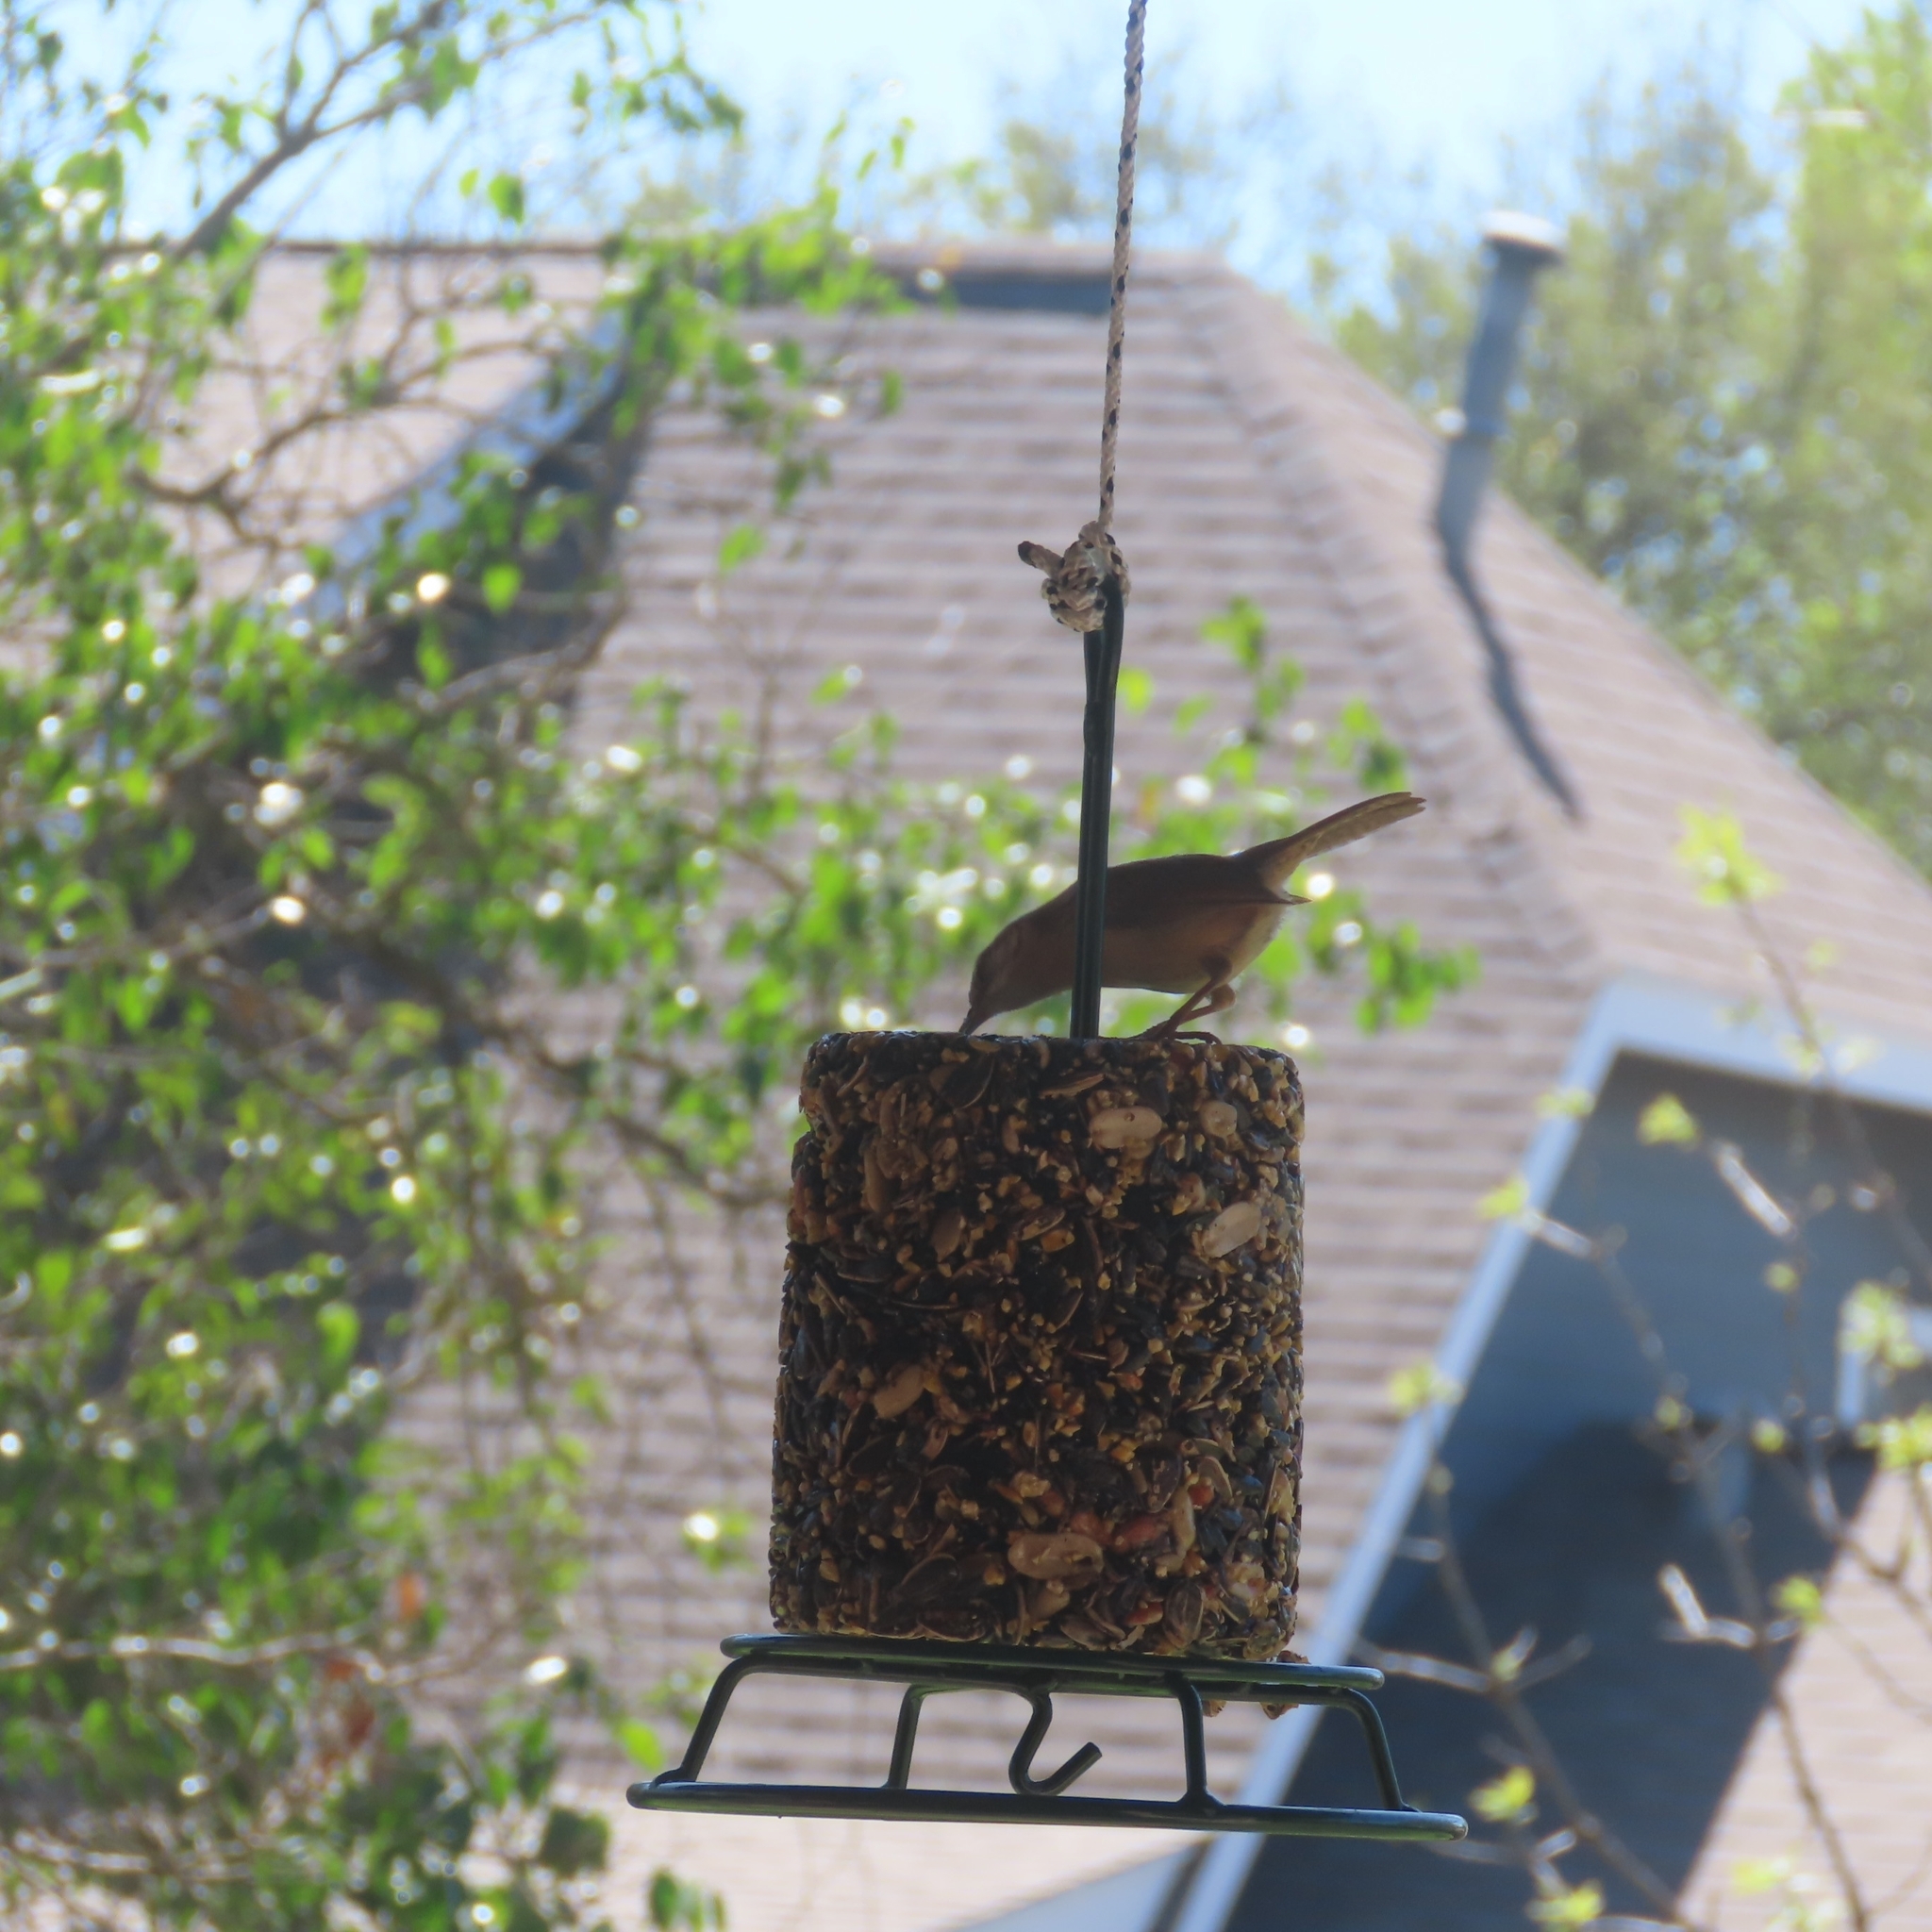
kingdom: Animalia
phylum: Chordata
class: Aves
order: Passeriformes
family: Troglodytidae
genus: Thryothorus
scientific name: Thryothorus ludovicianus
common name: Carolina wren
